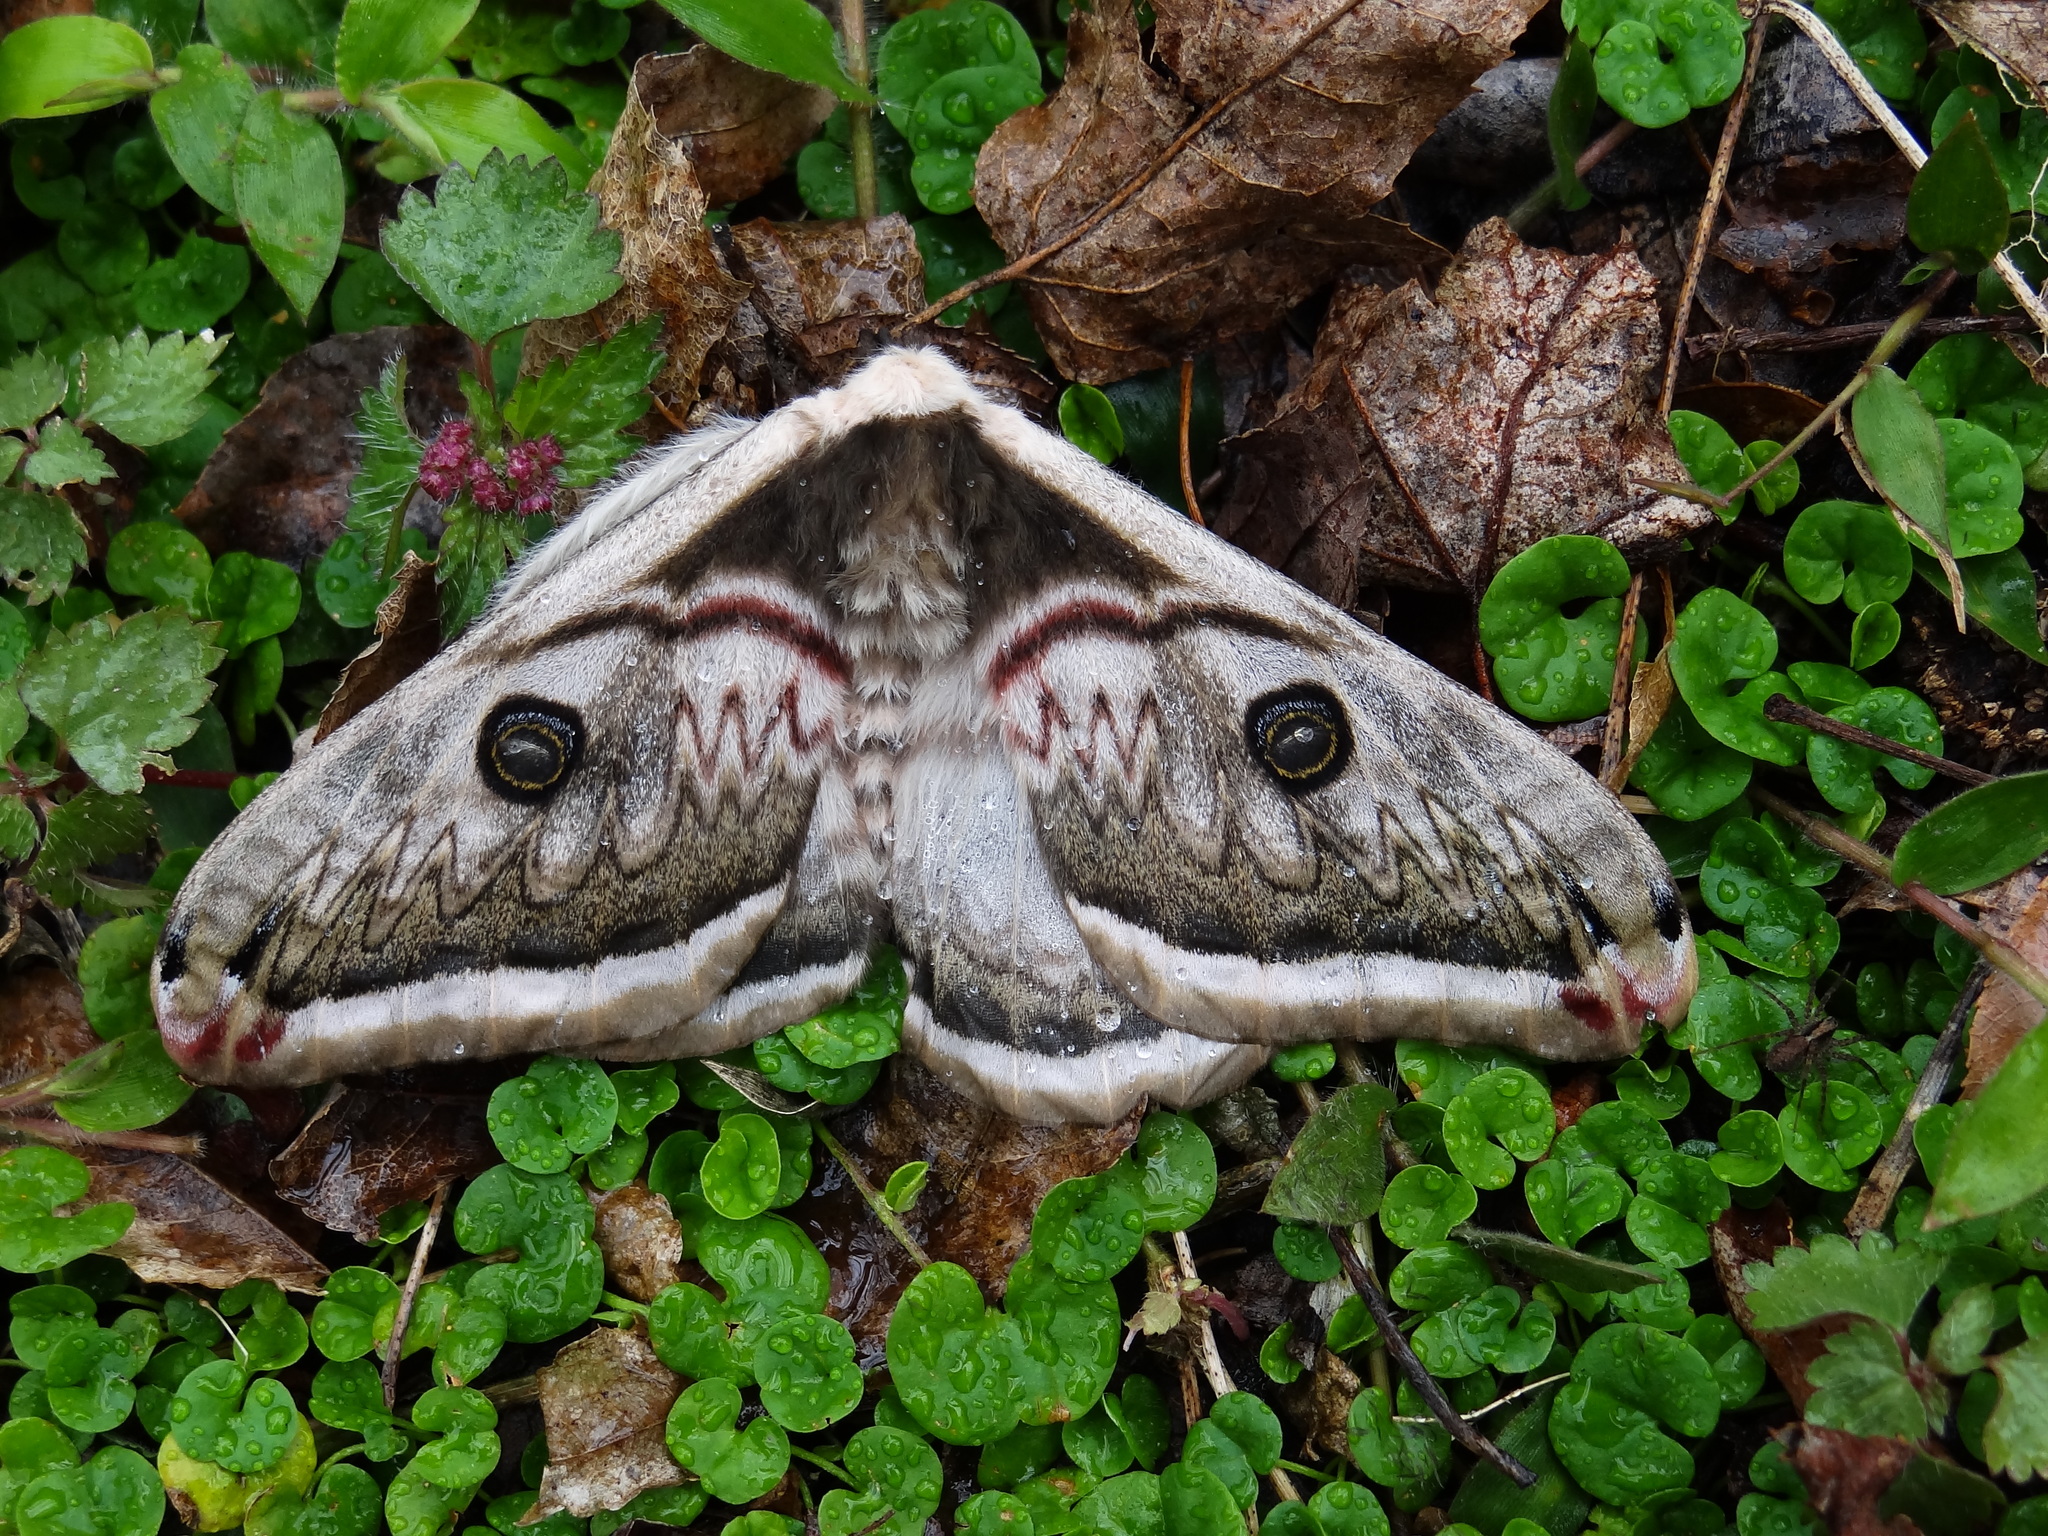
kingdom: Animalia
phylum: Arthropoda
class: Insecta
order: Lepidoptera
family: Saturniidae
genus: Saturnia
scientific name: Saturnia pyretorum
